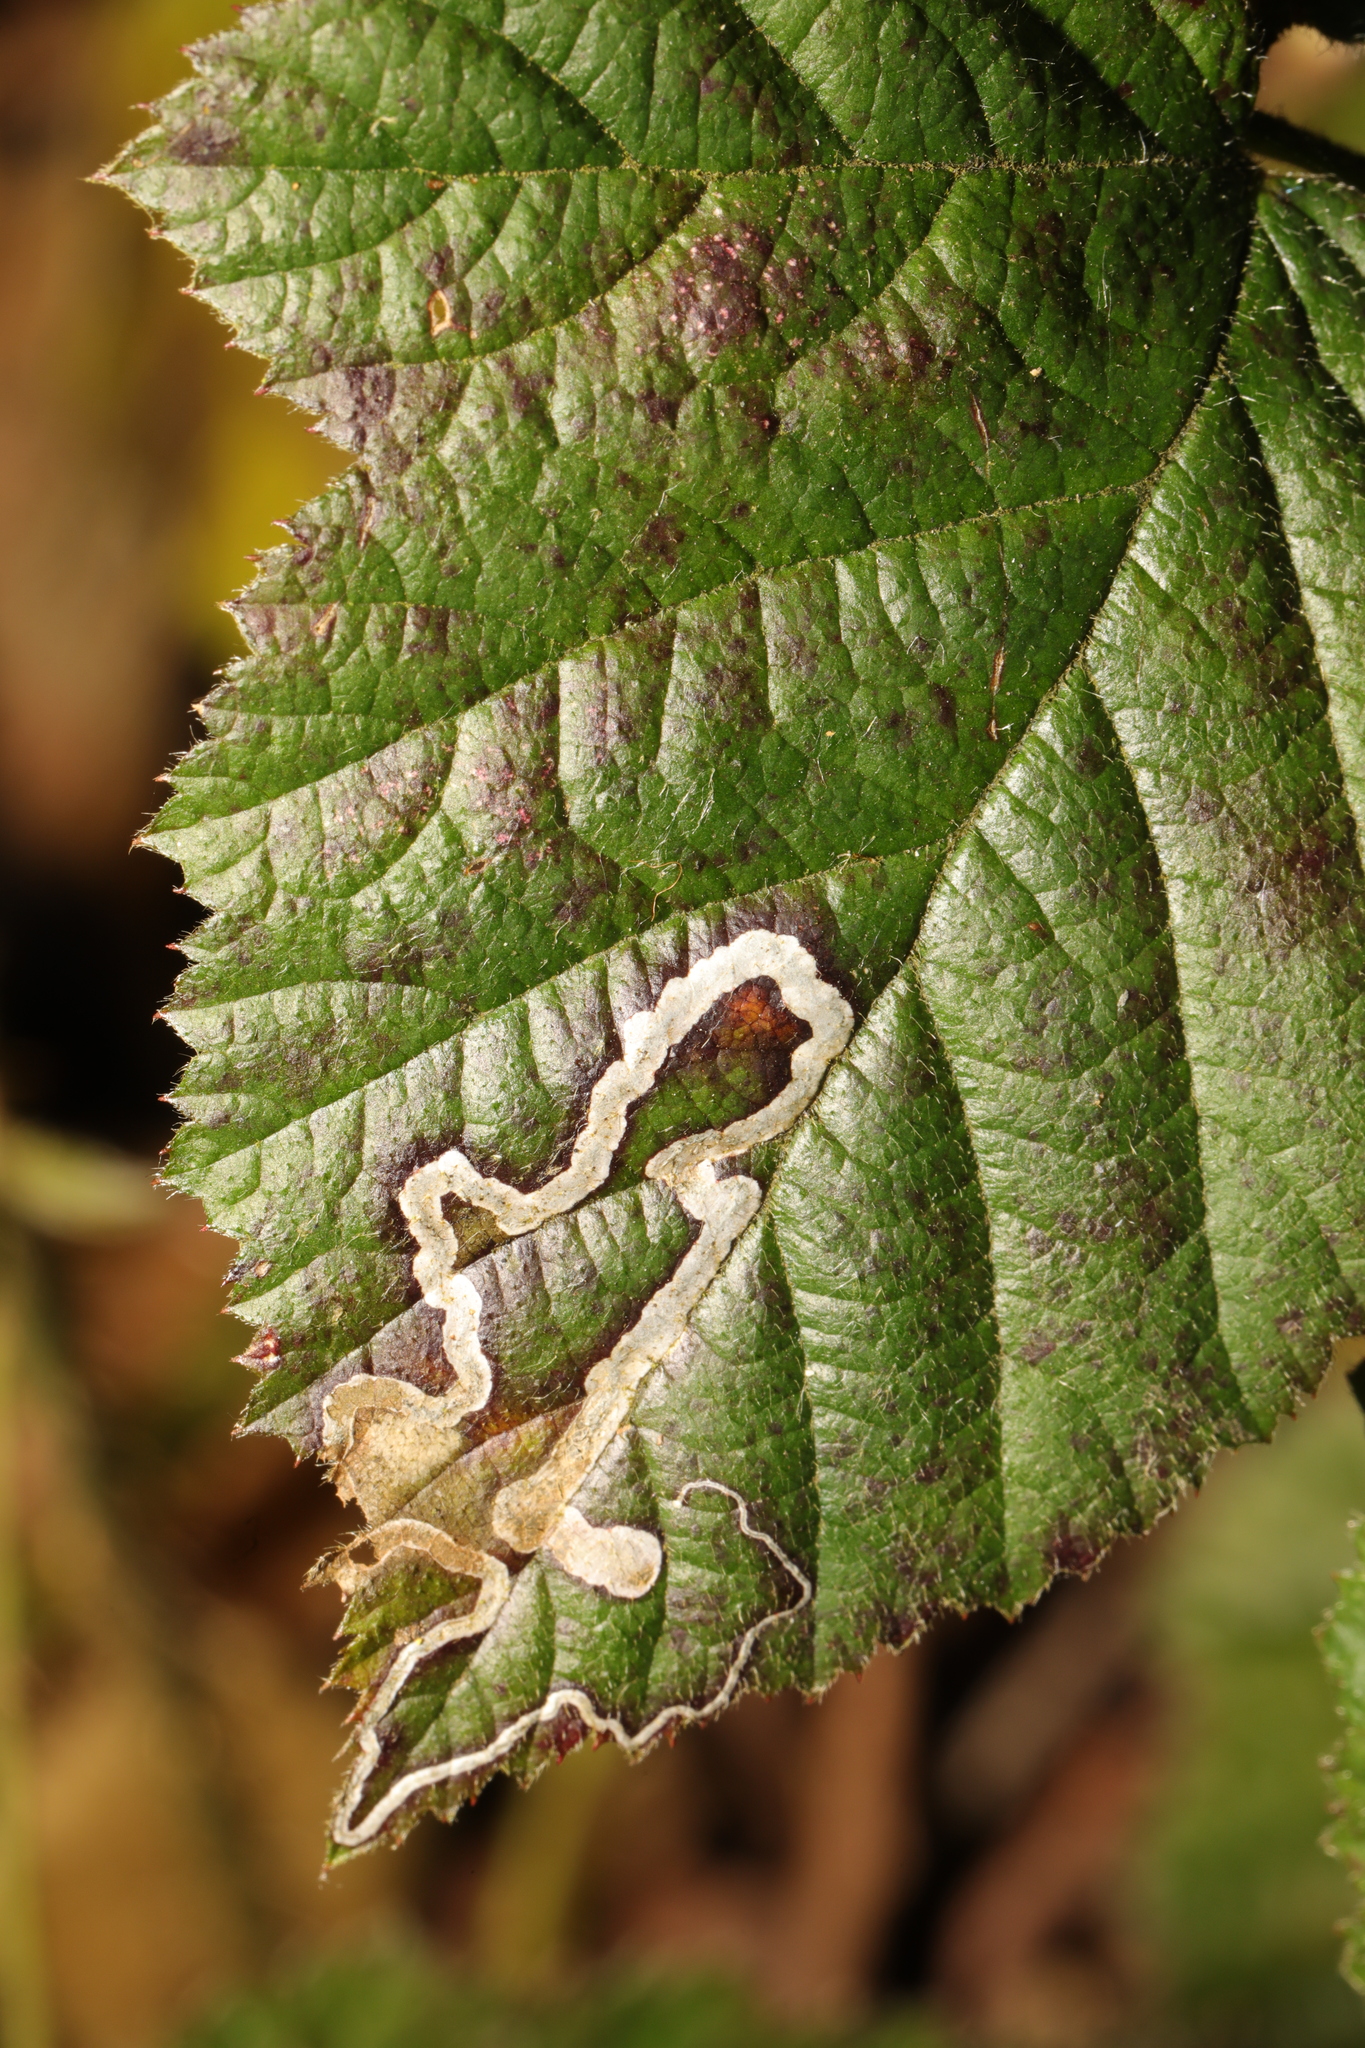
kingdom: Animalia
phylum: Arthropoda
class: Insecta
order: Lepidoptera
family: Nepticulidae
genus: Stigmella
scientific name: Stigmella aurella
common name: Golden pigmy
